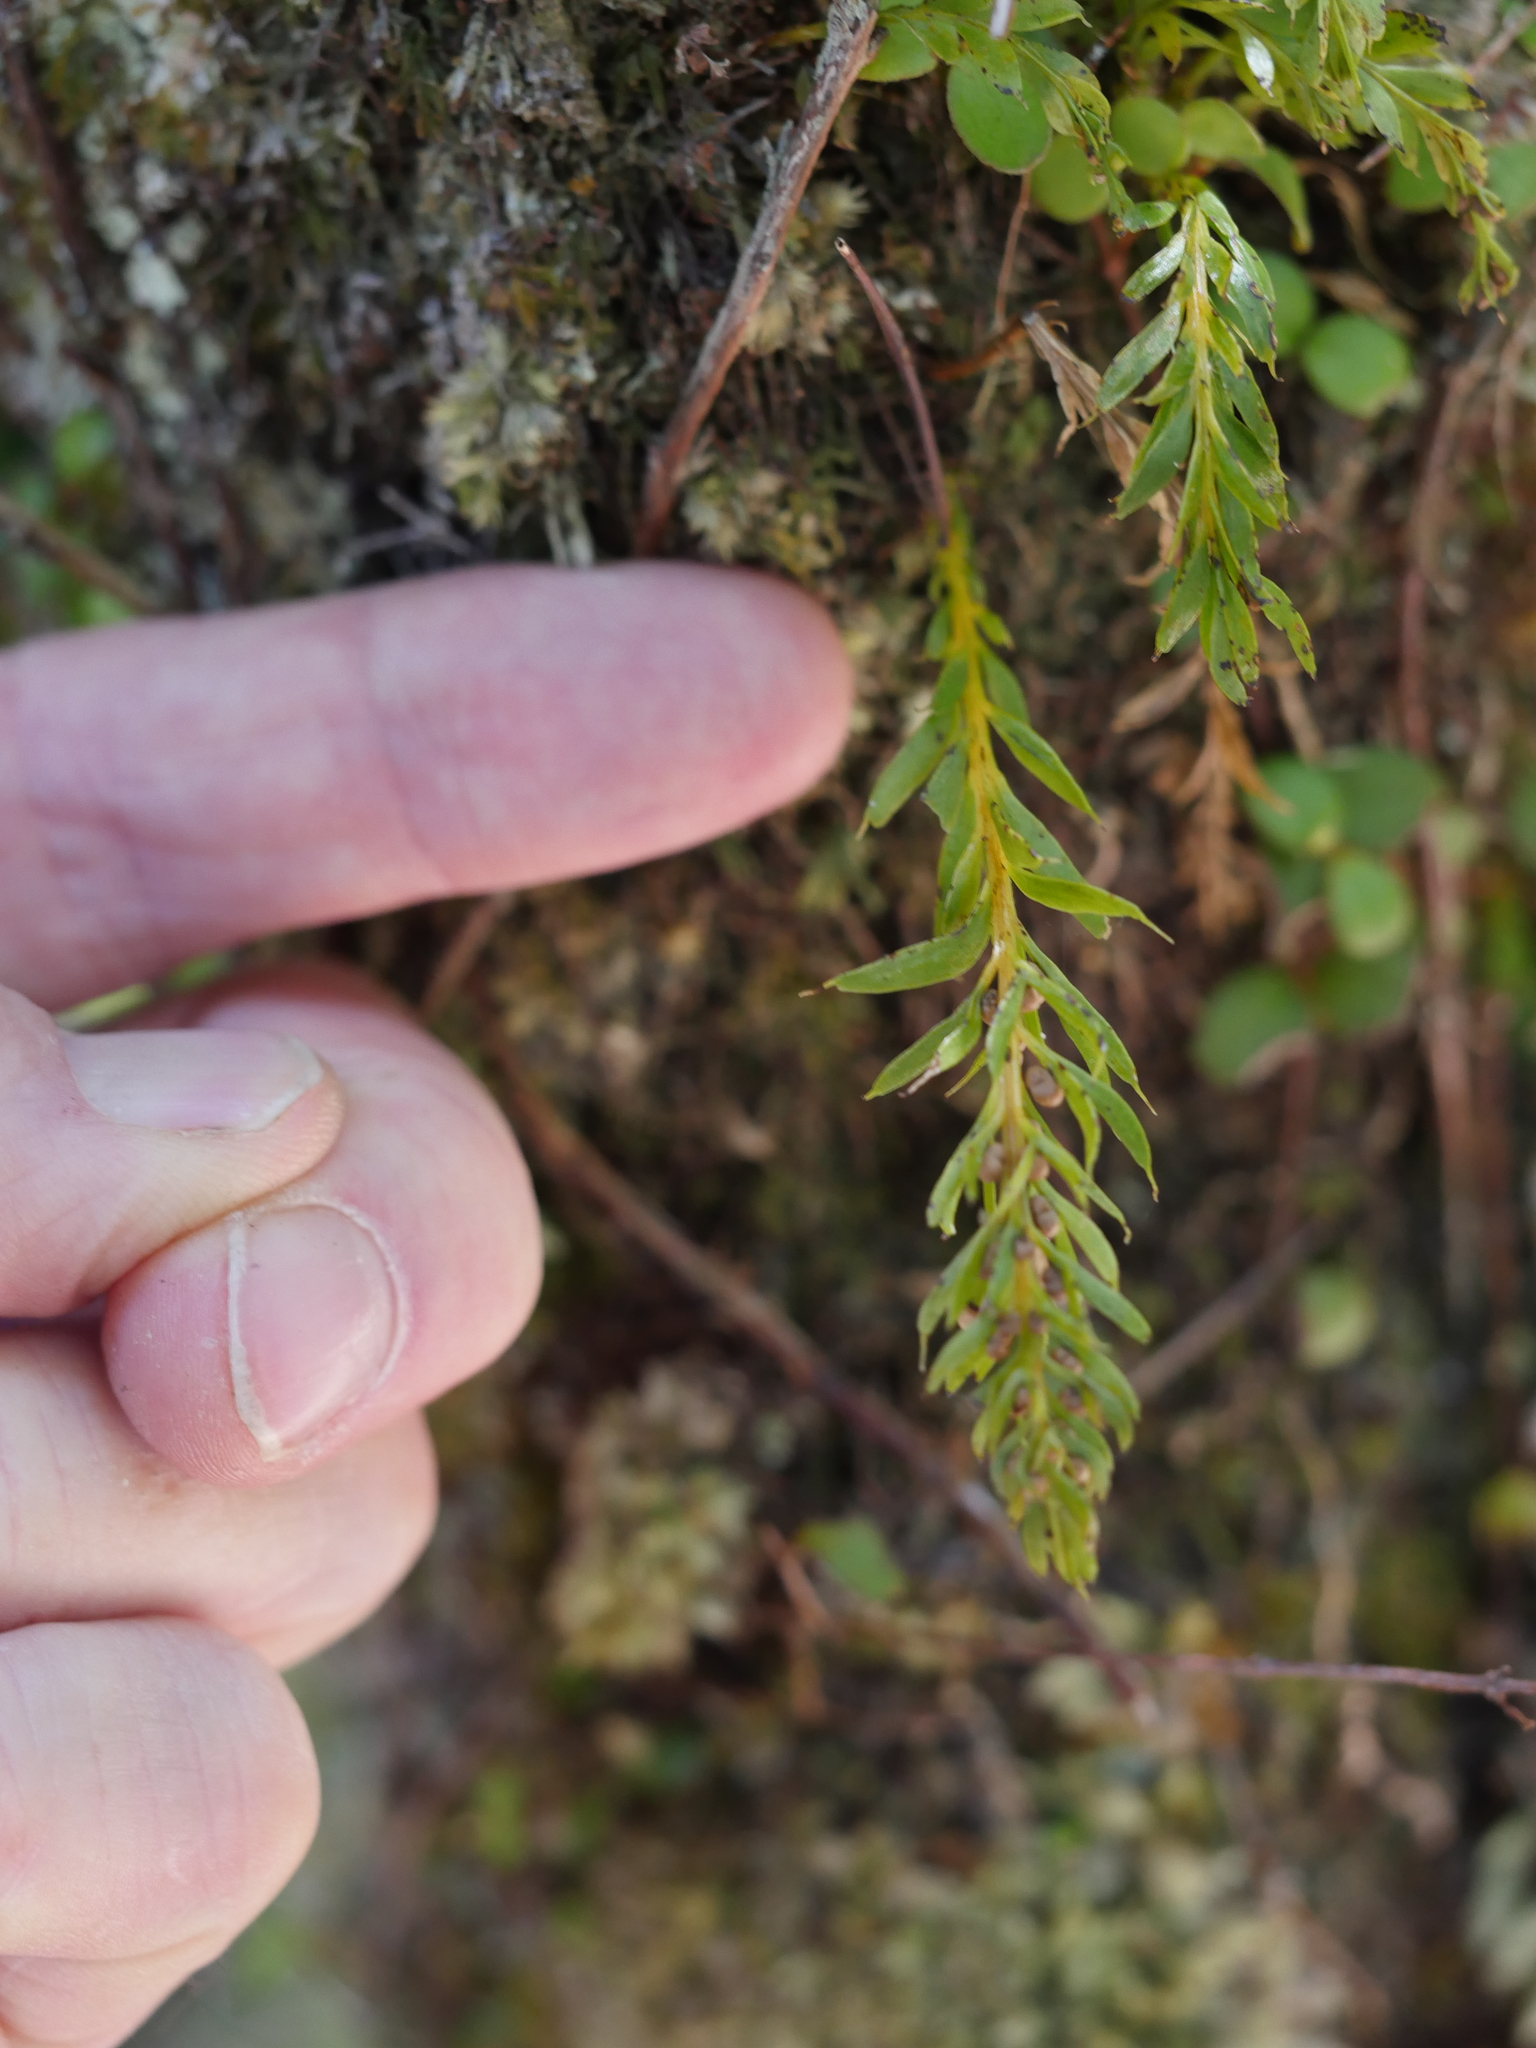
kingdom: Plantae
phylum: Tracheophyta
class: Polypodiopsida
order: Psilotales
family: Psilotaceae
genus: Tmesipteris
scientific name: Tmesipteris sigmatifolia
